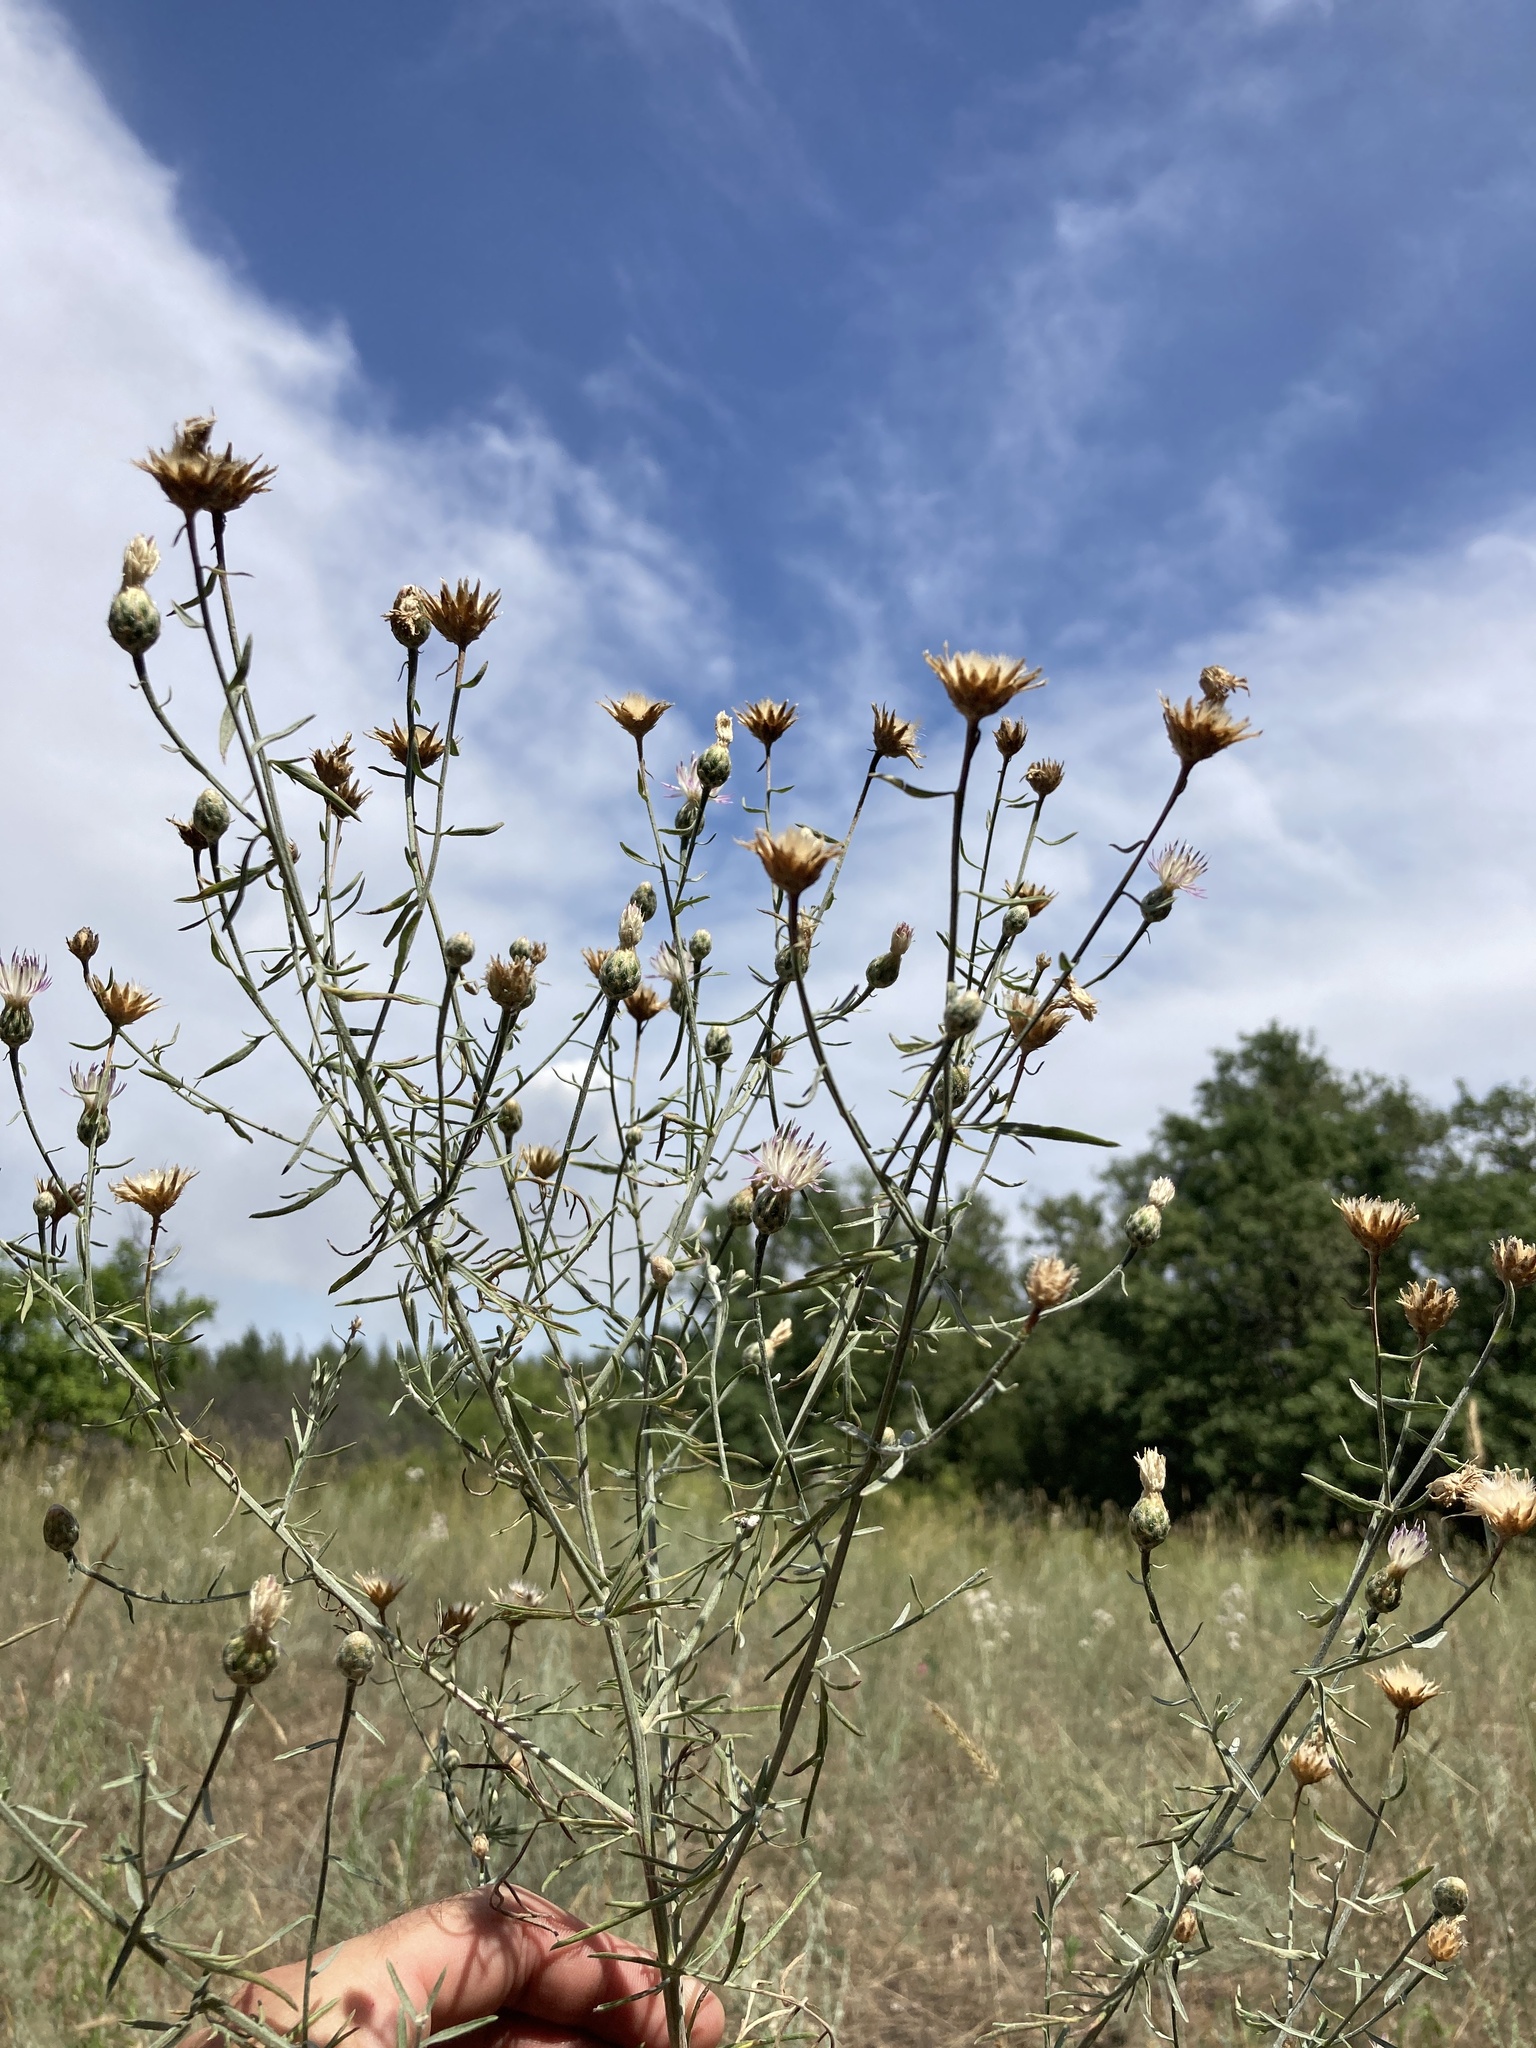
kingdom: Plantae
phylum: Tracheophyta
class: Magnoliopsida
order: Asterales
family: Asteraceae
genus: Centaurea
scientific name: Centaurea arenaria
